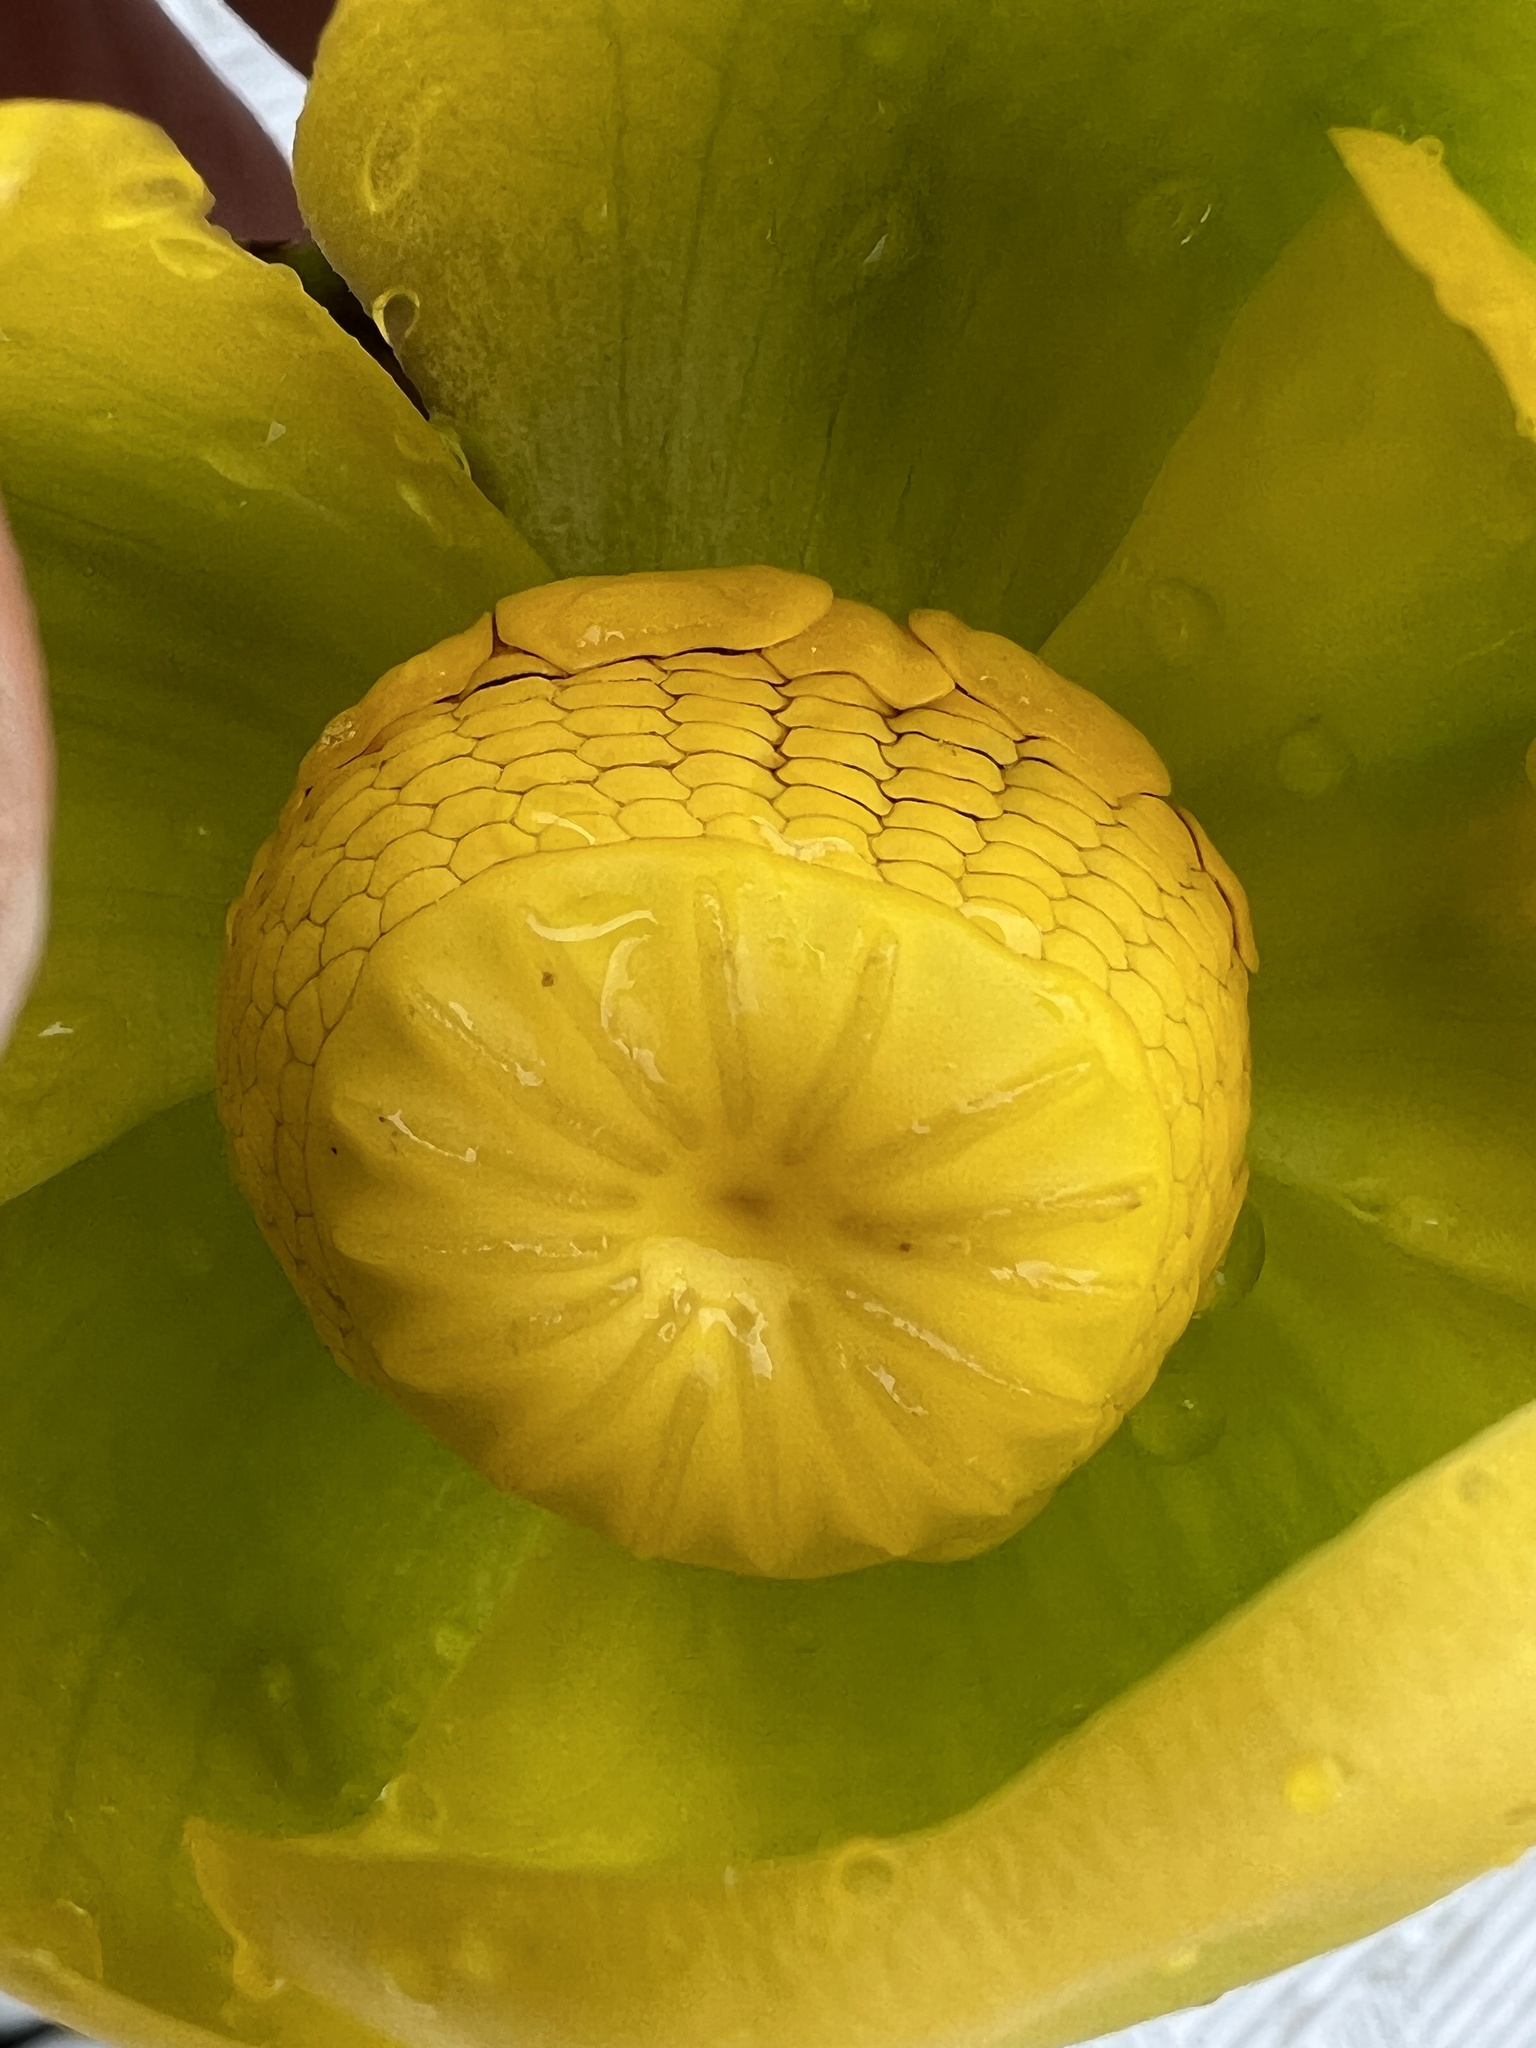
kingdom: Plantae
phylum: Tracheophyta
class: Magnoliopsida
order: Nymphaeales
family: Nymphaeaceae
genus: Nuphar
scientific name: Nuphar polysepala
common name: Rocky mountain cow-lily
